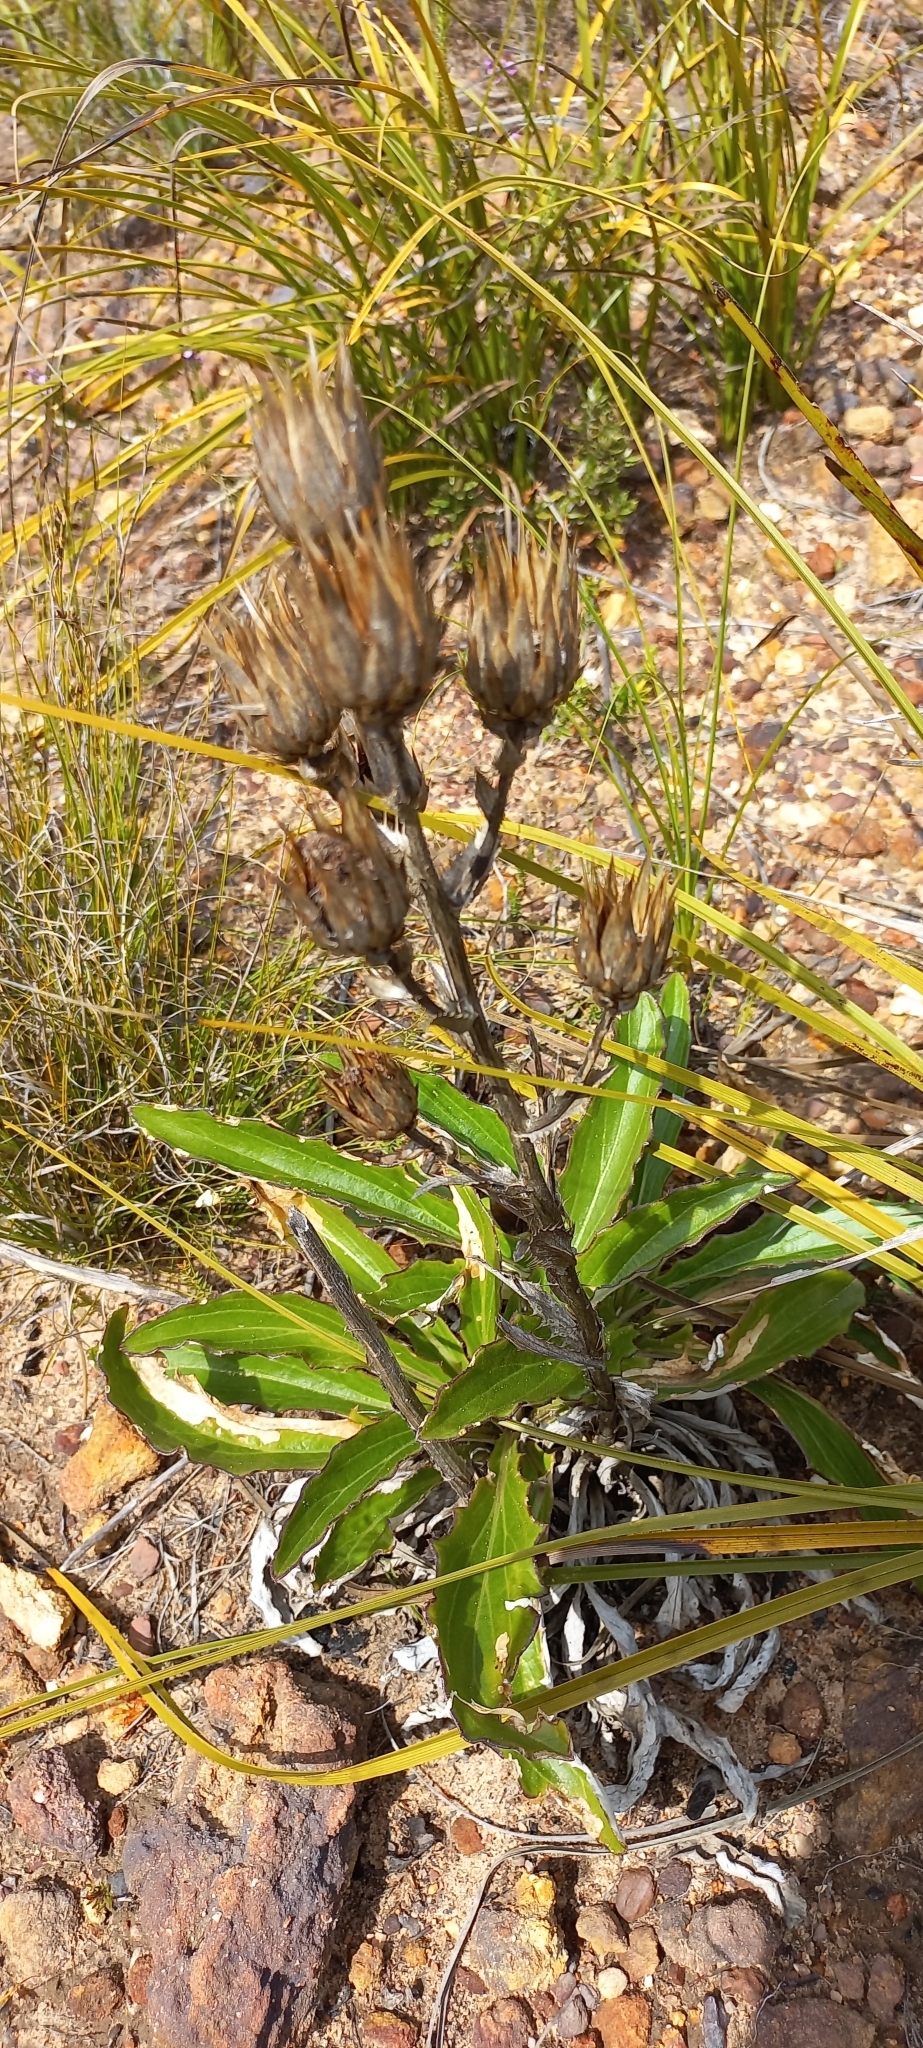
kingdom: Plantae
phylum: Tracheophyta
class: Magnoliopsida
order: Asterales
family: Asteraceae
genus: Berkheya
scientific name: Berkheya herbacea
